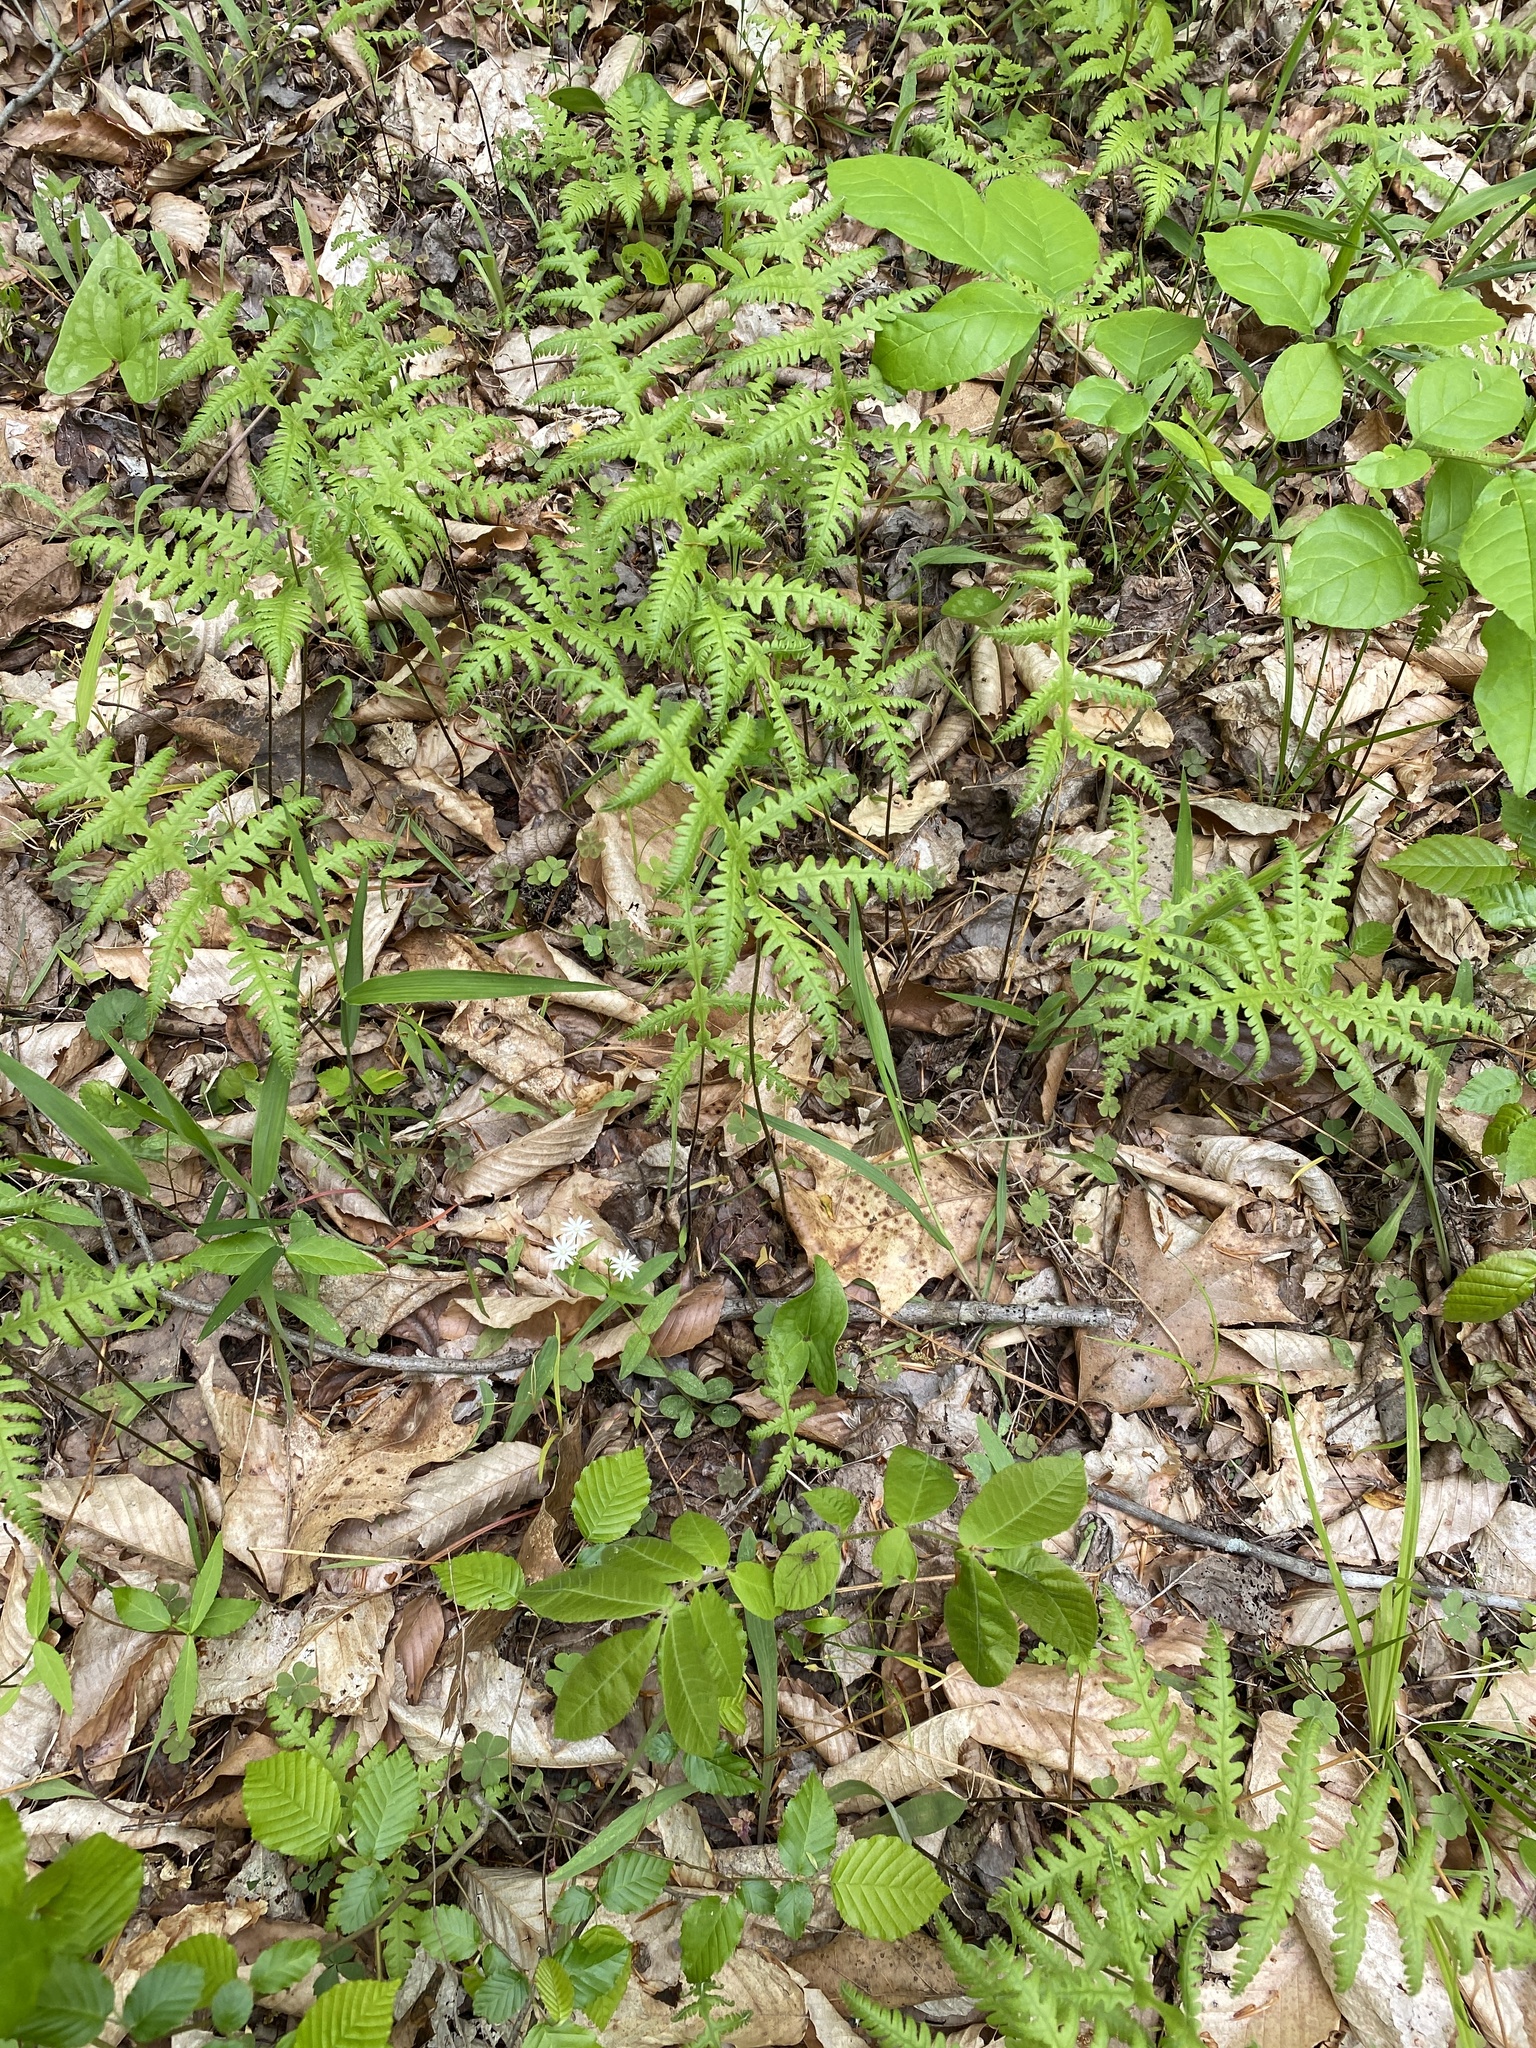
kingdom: Plantae
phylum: Tracheophyta
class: Polypodiopsida
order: Polypodiales
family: Thelypteridaceae
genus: Phegopteris
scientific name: Phegopteris hexagonoptera
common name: Broad beech fern
